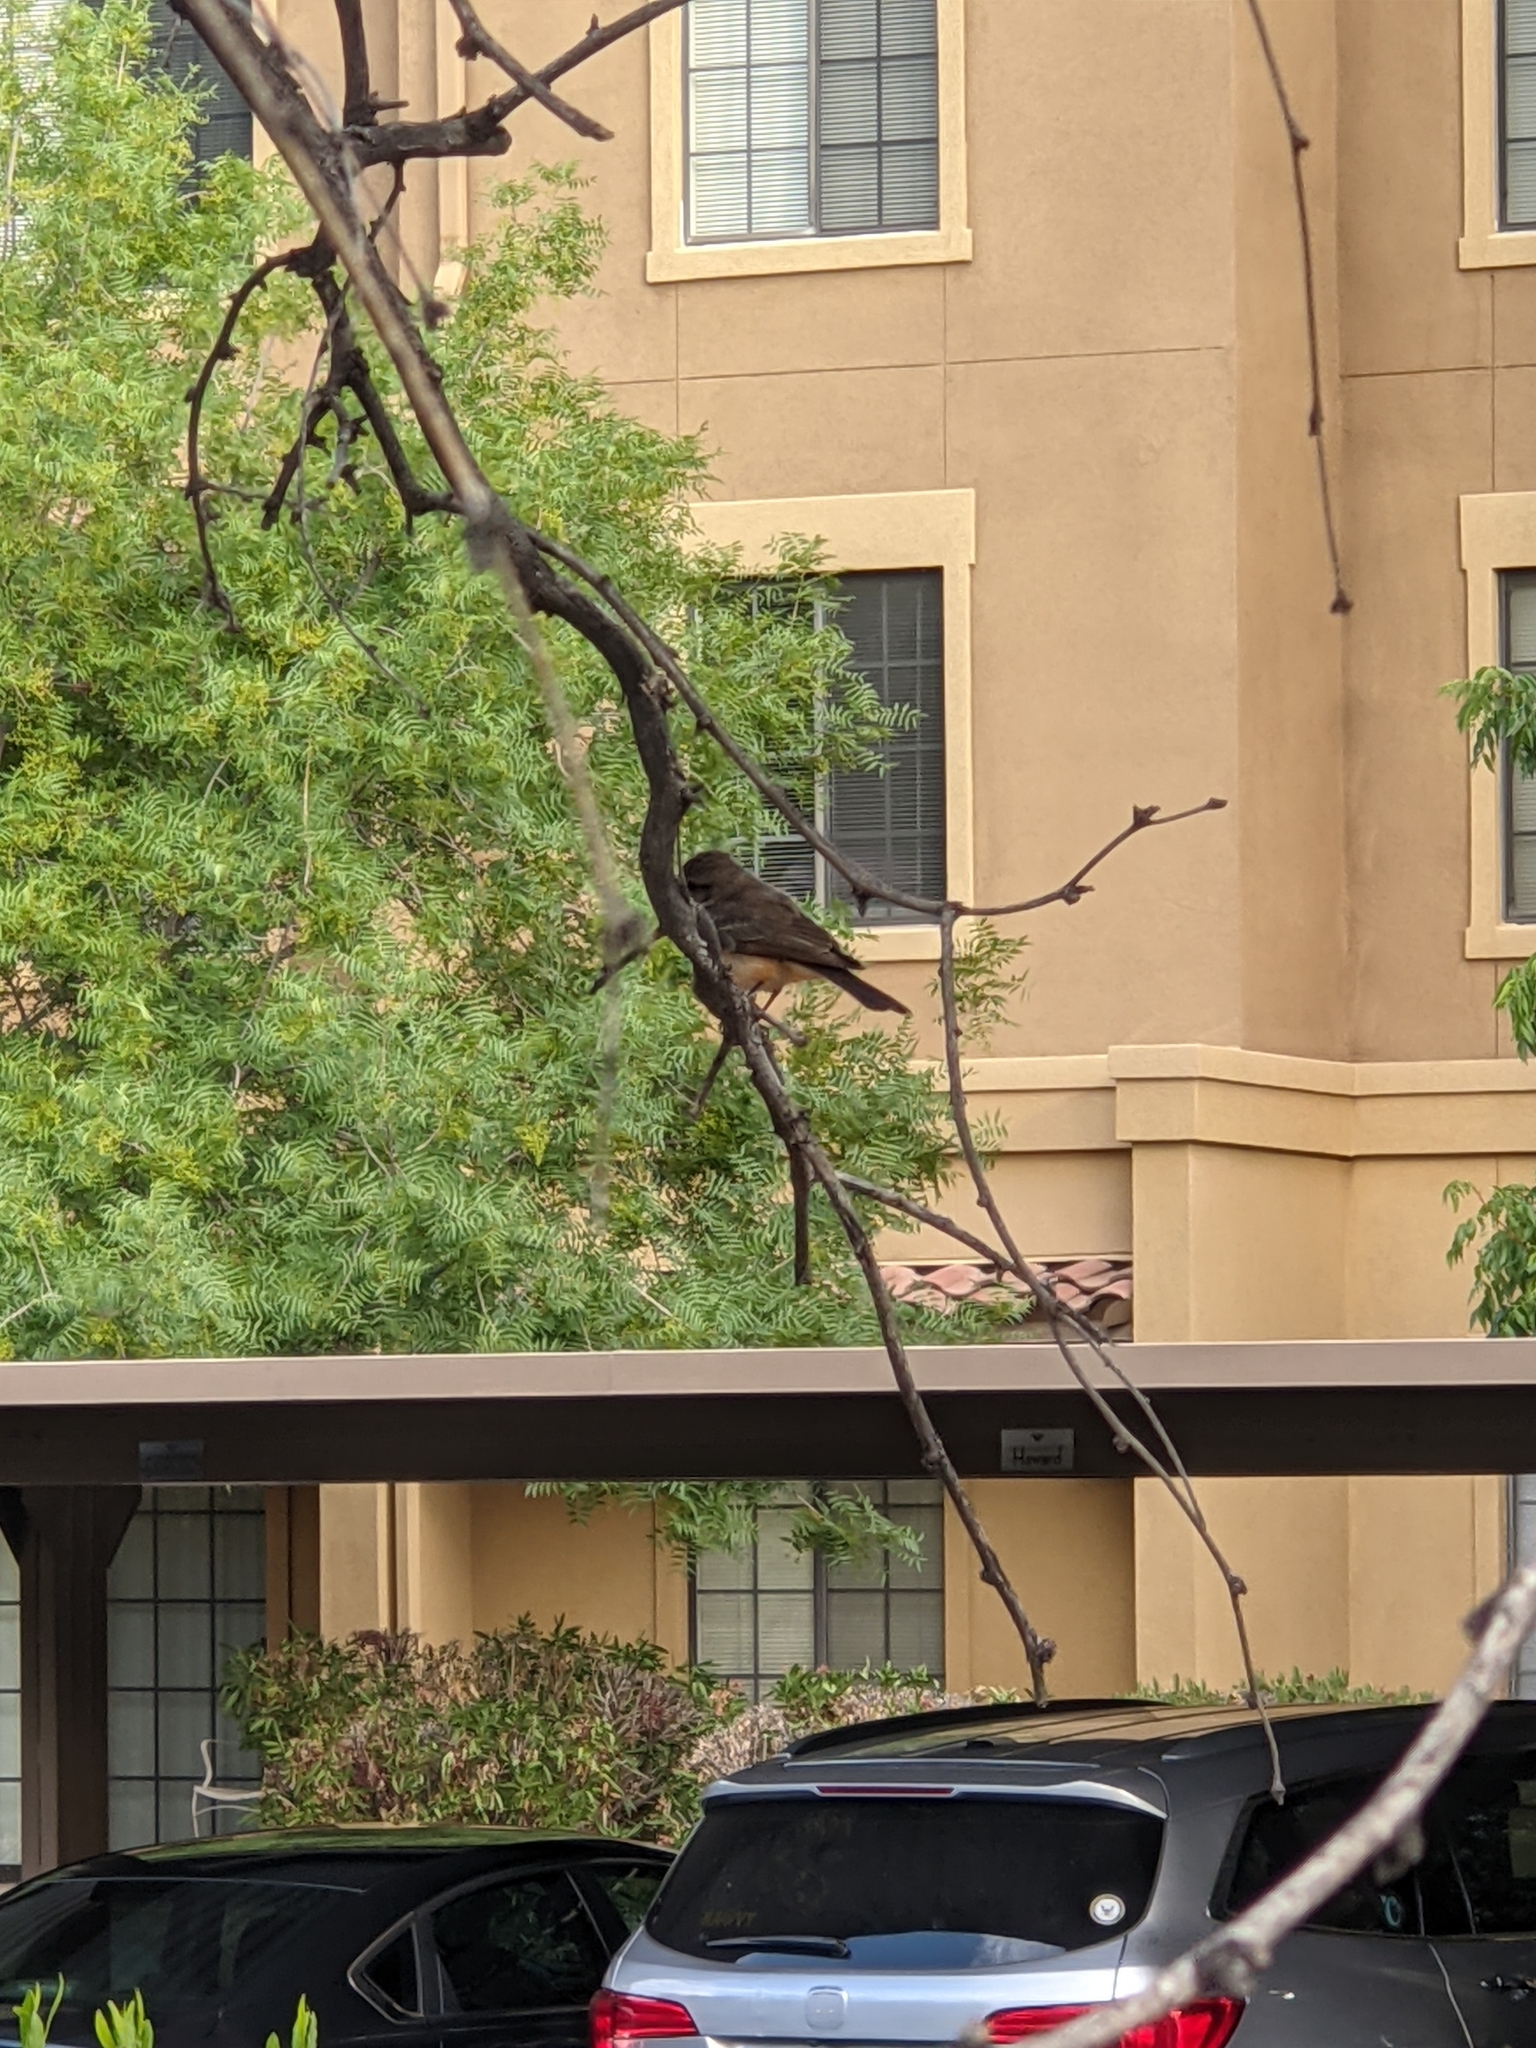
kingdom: Animalia
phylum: Chordata
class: Aves
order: Passeriformes
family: Tyrannidae
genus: Pyrocephalus
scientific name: Pyrocephalus rubinus
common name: Vermilion flycatcher
